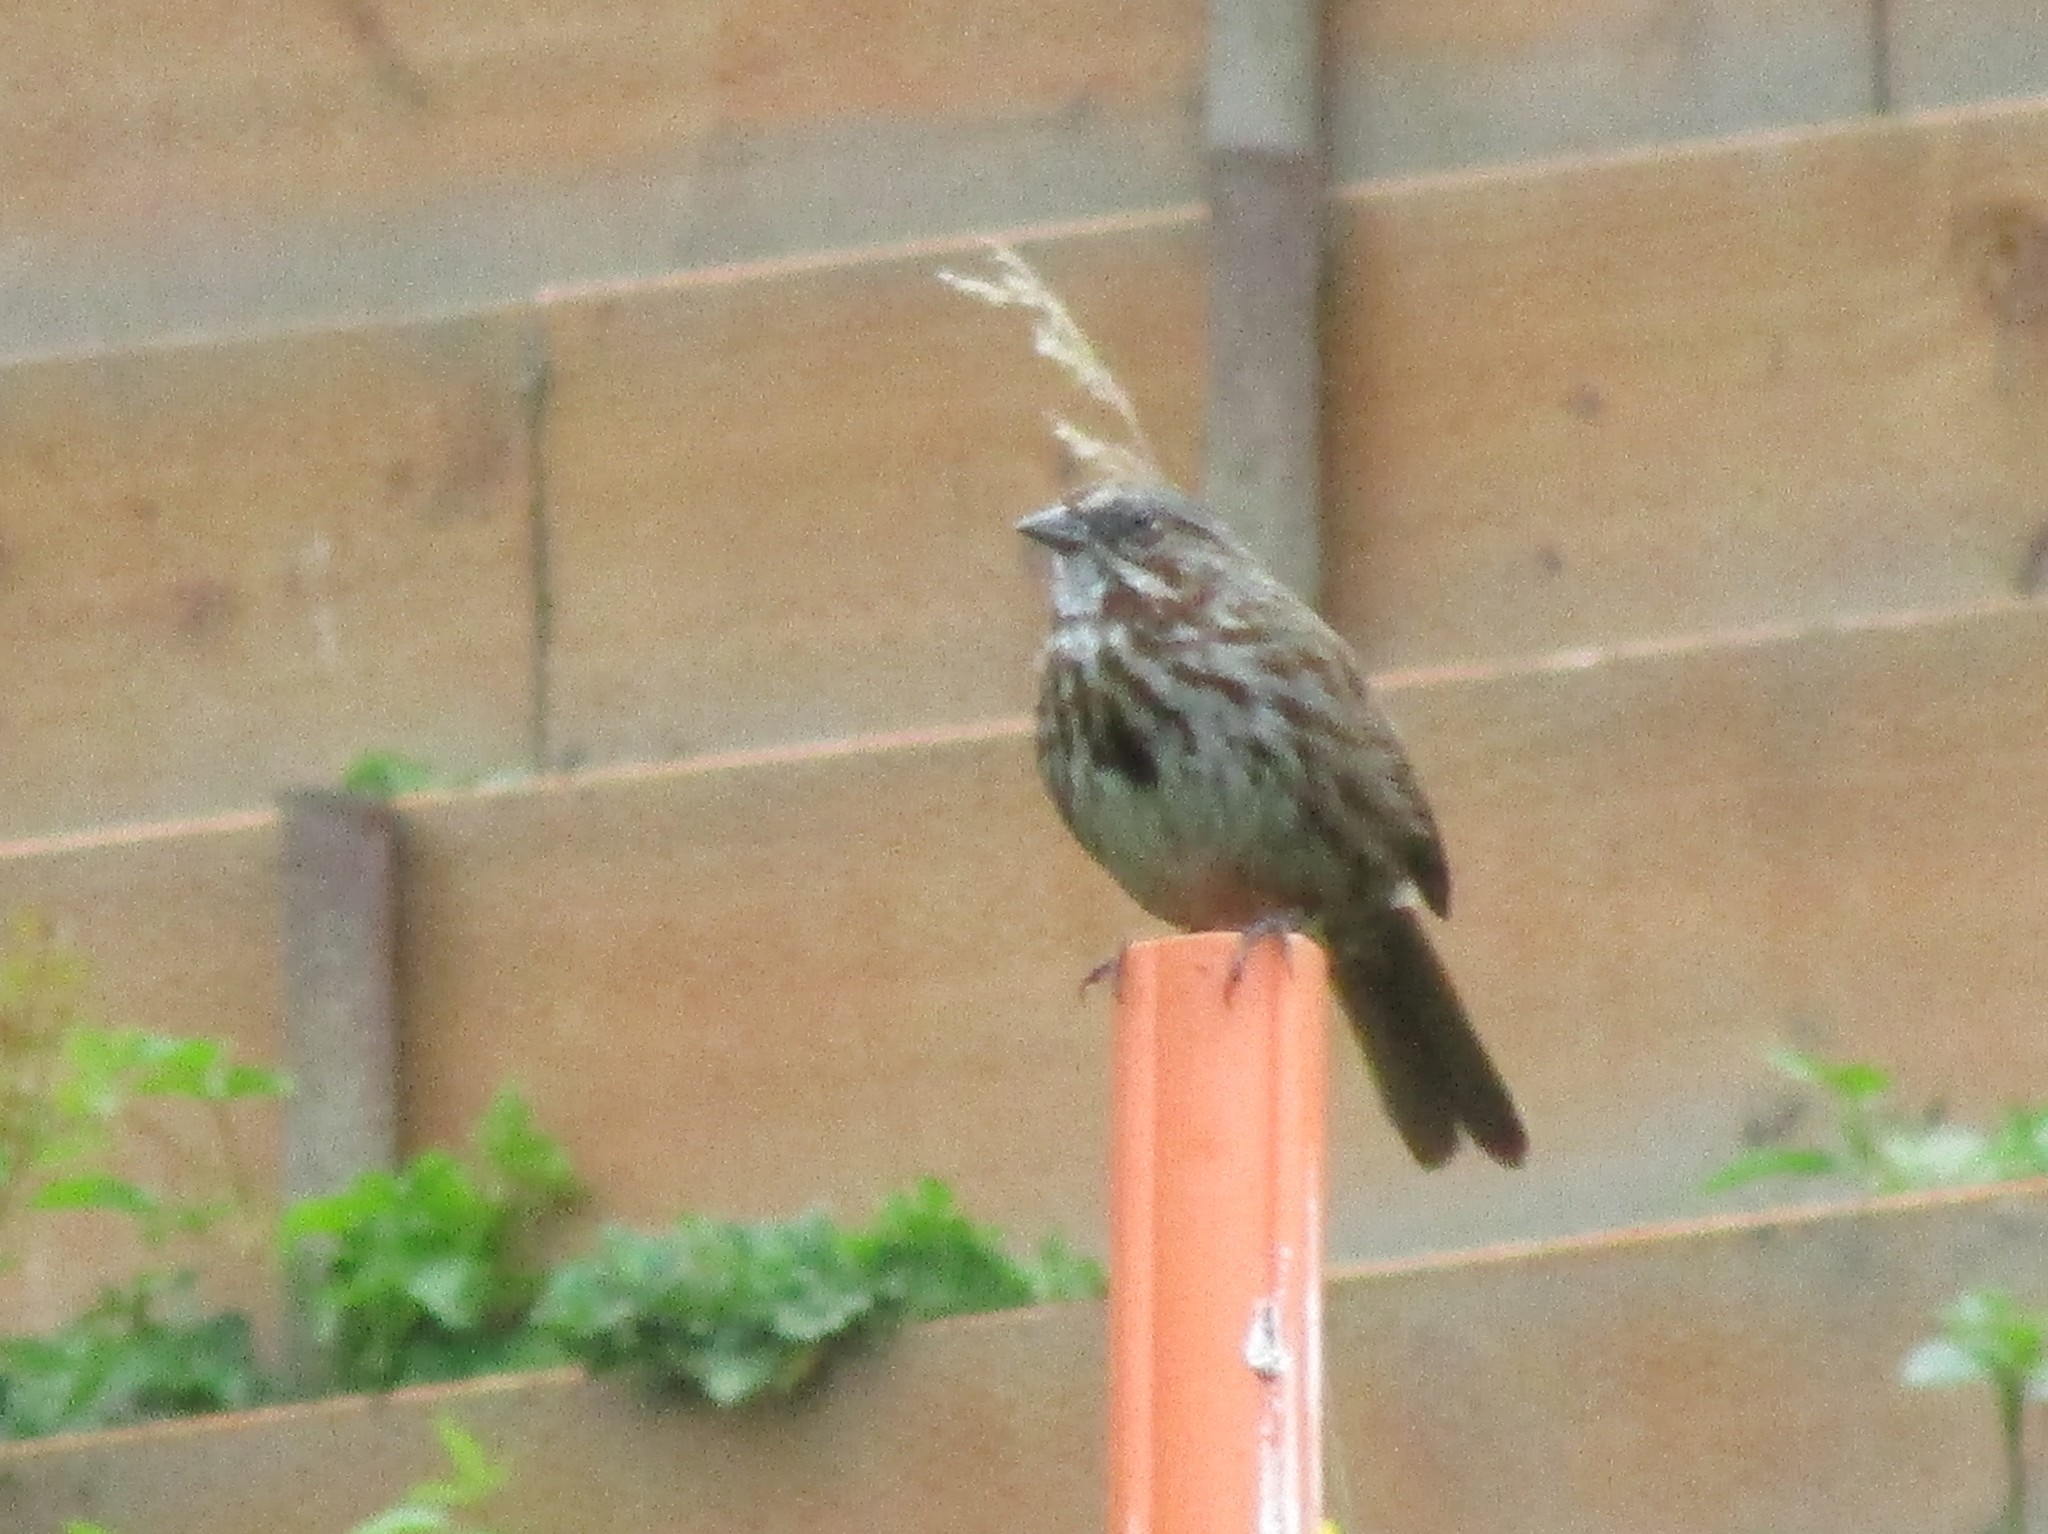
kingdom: Animalia
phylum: Chordata
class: Aves
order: Passeriformes
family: Passerellidae
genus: Melospiza
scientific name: Melospiza melodia
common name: Song sparrow
